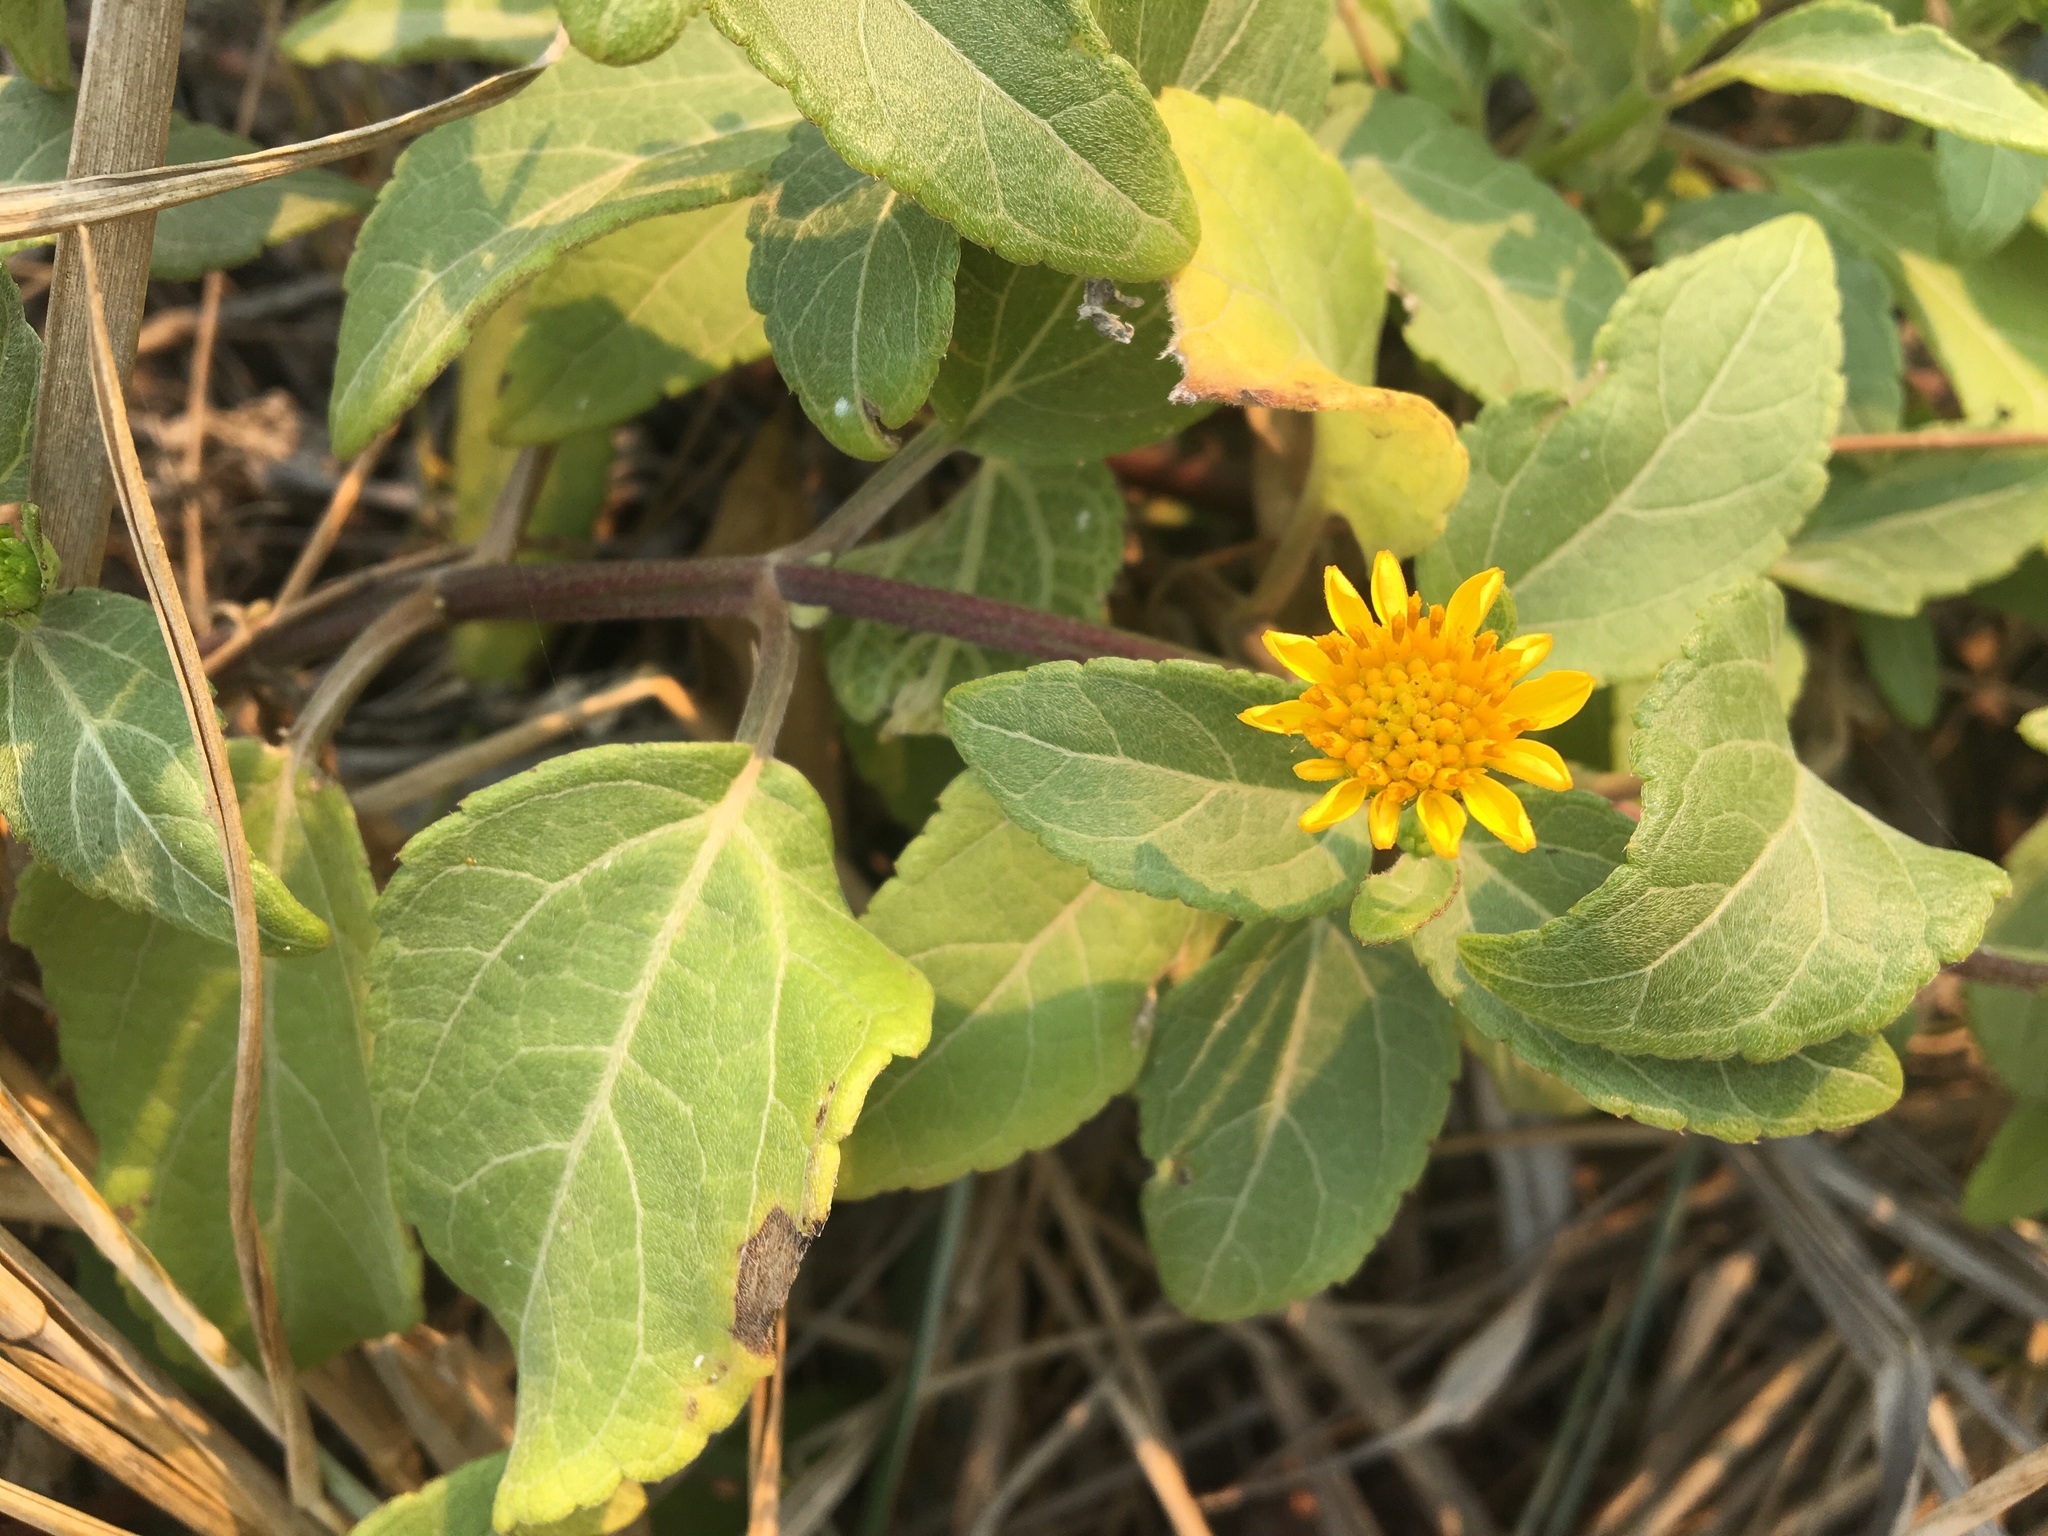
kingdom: Plantae
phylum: Tracheophyta
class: Magnoliopsida
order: Asterales
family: Asteraceae
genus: Wollastonia
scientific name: Wollastonia uniflora
